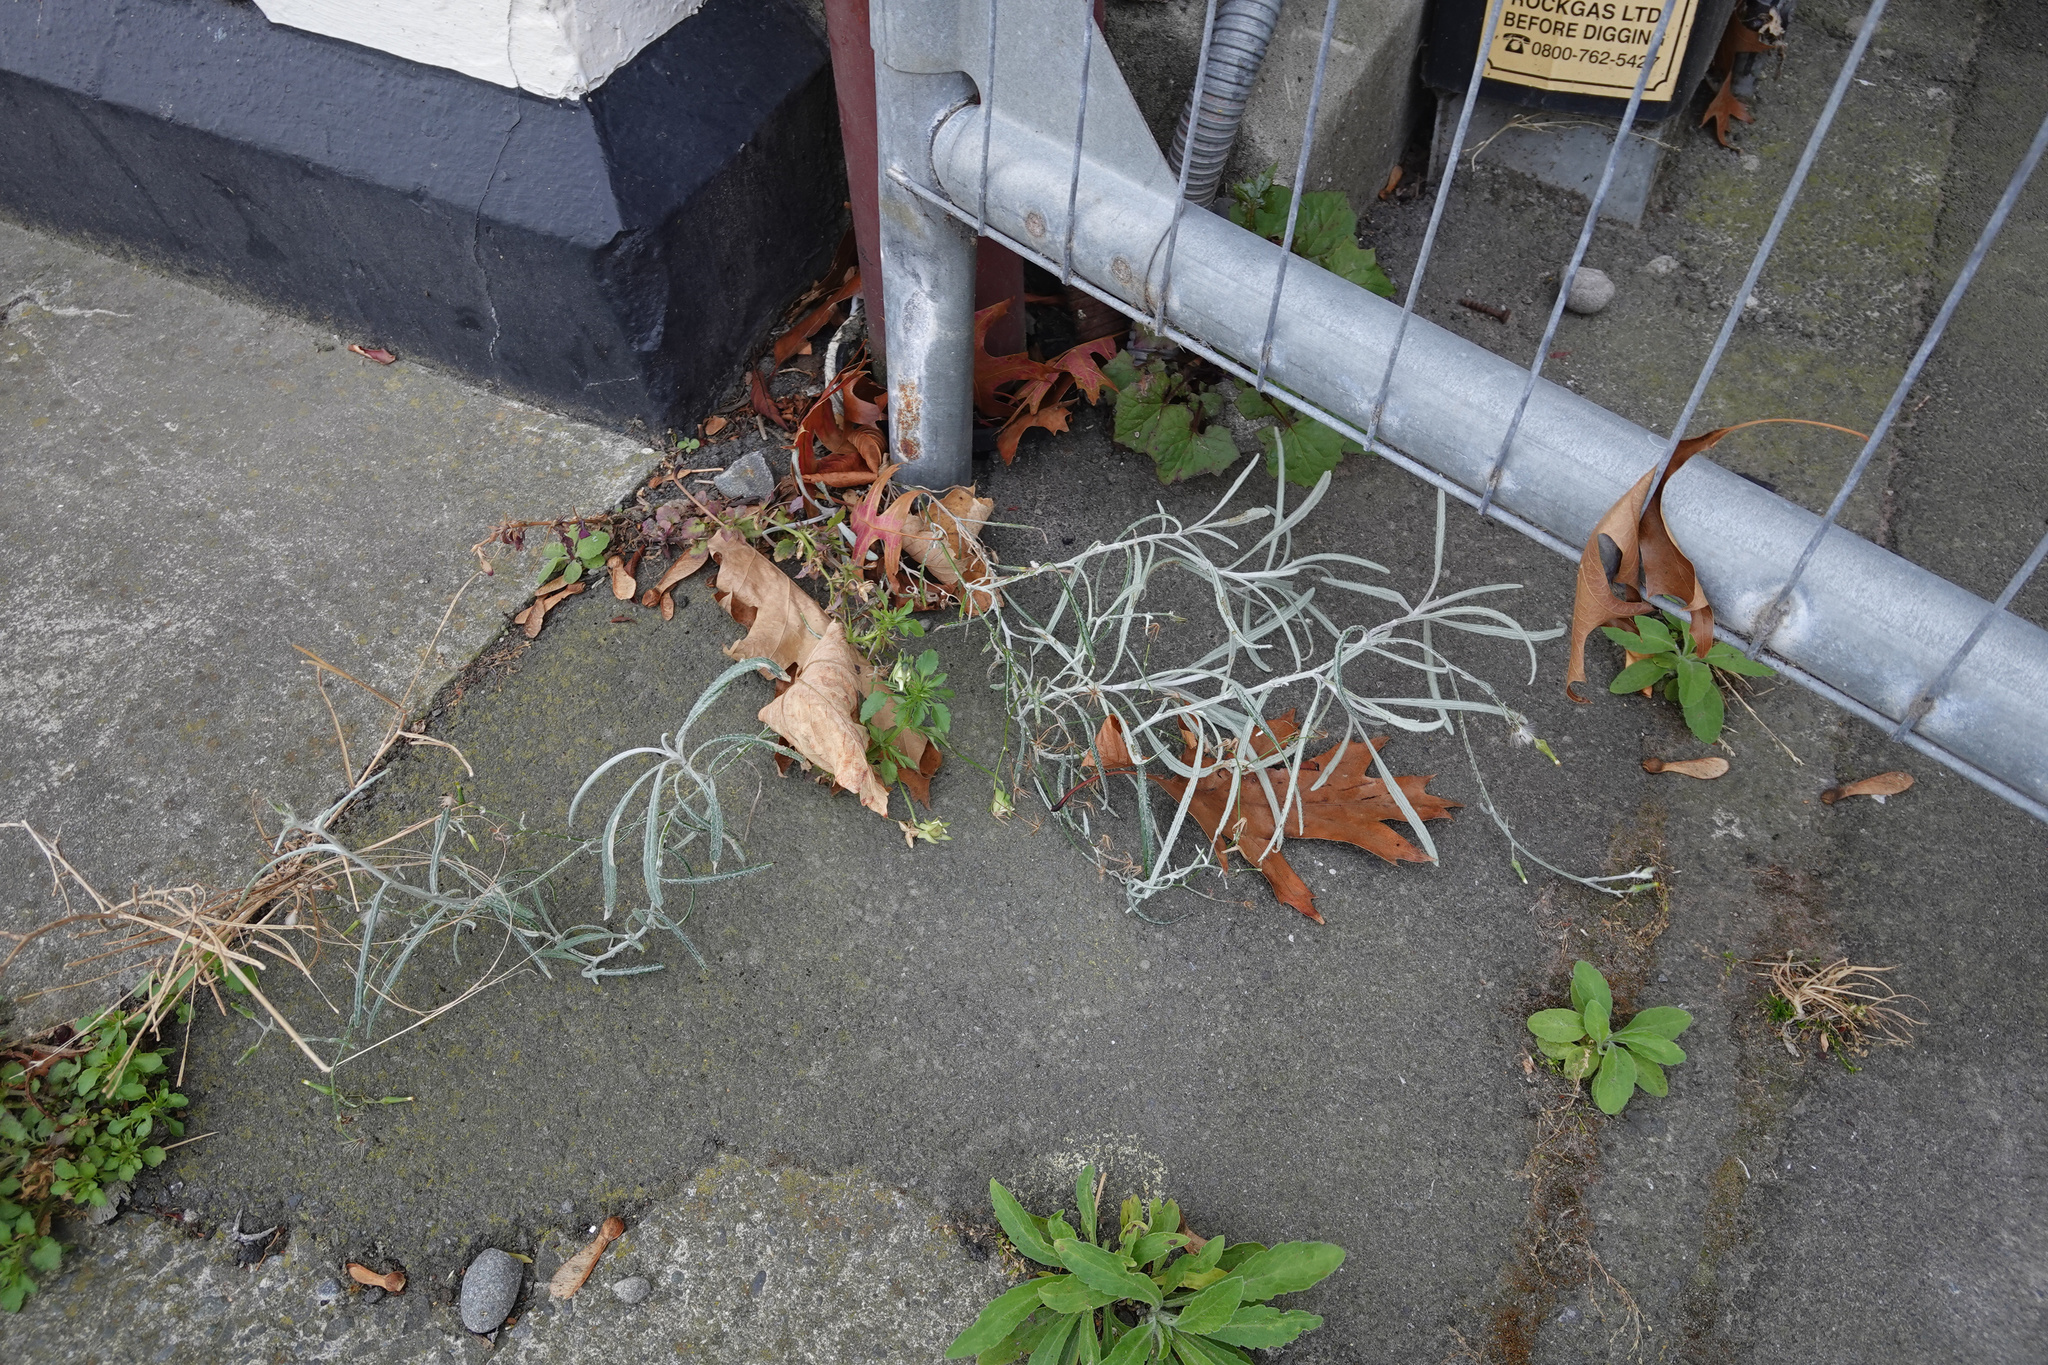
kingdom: Plantae
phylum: Tracheophyta
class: Magnoliopsida
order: Asterales
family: Asteraceae
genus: Senecio
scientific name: Senecio quadridentatus
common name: Cotton fireweed
